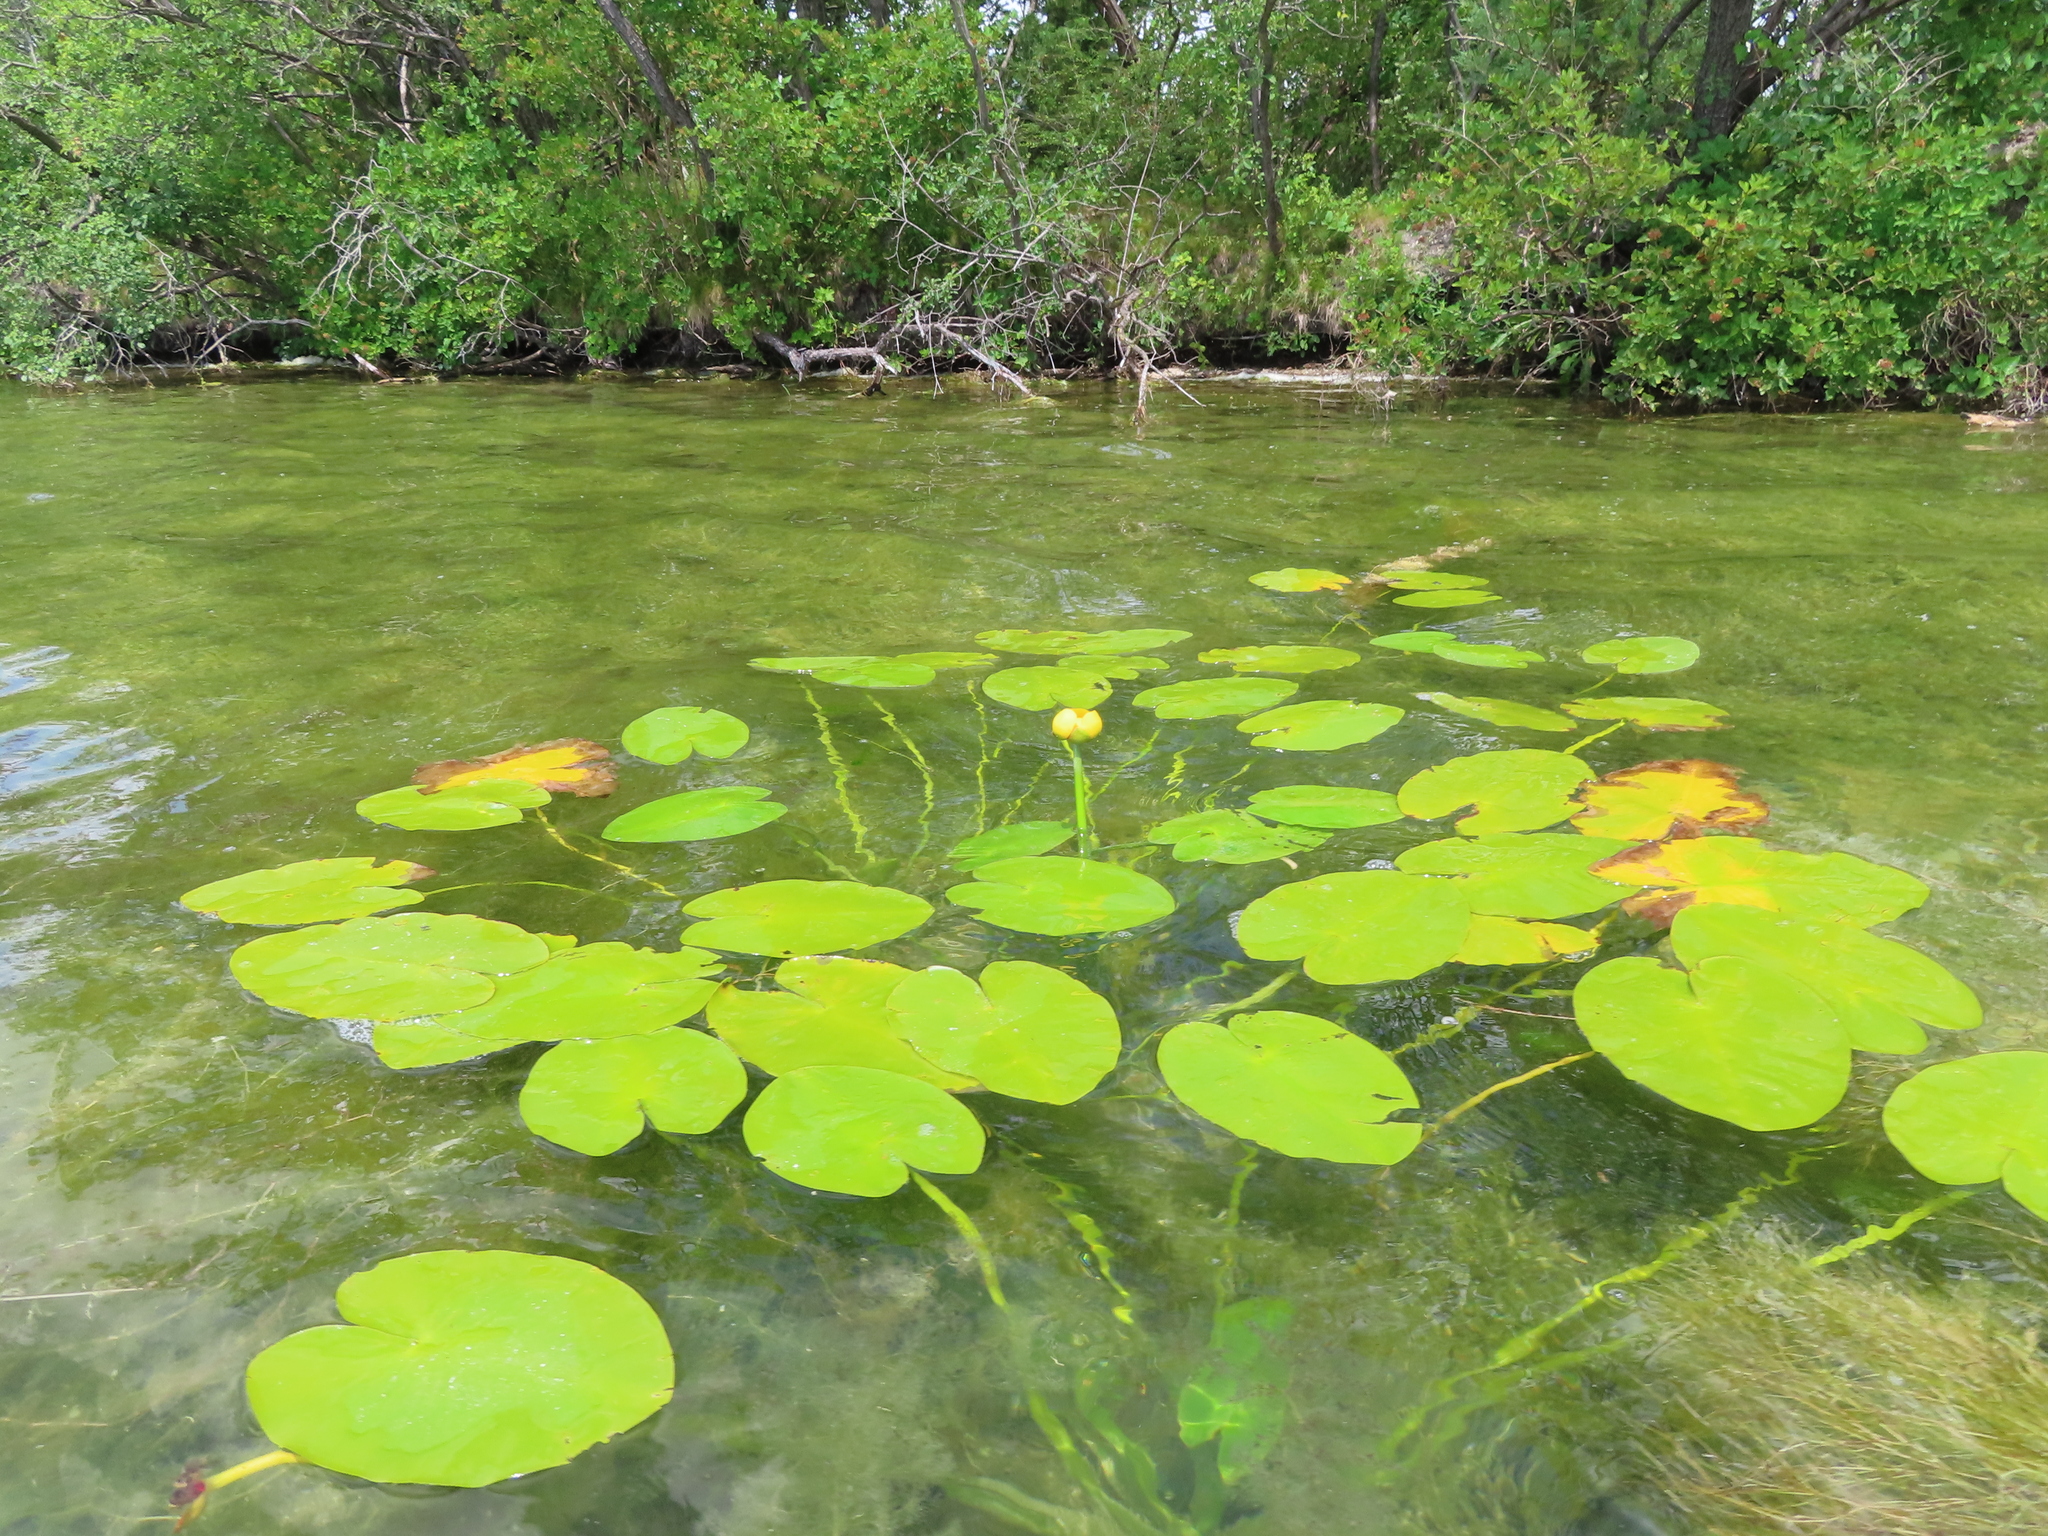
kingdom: Plantae
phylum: Tracheophyta
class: Magnoliopsida
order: Nymphaeales
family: Nymphaeaceae
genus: Nuphar
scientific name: Nuphar variegata
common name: Beaver-root
